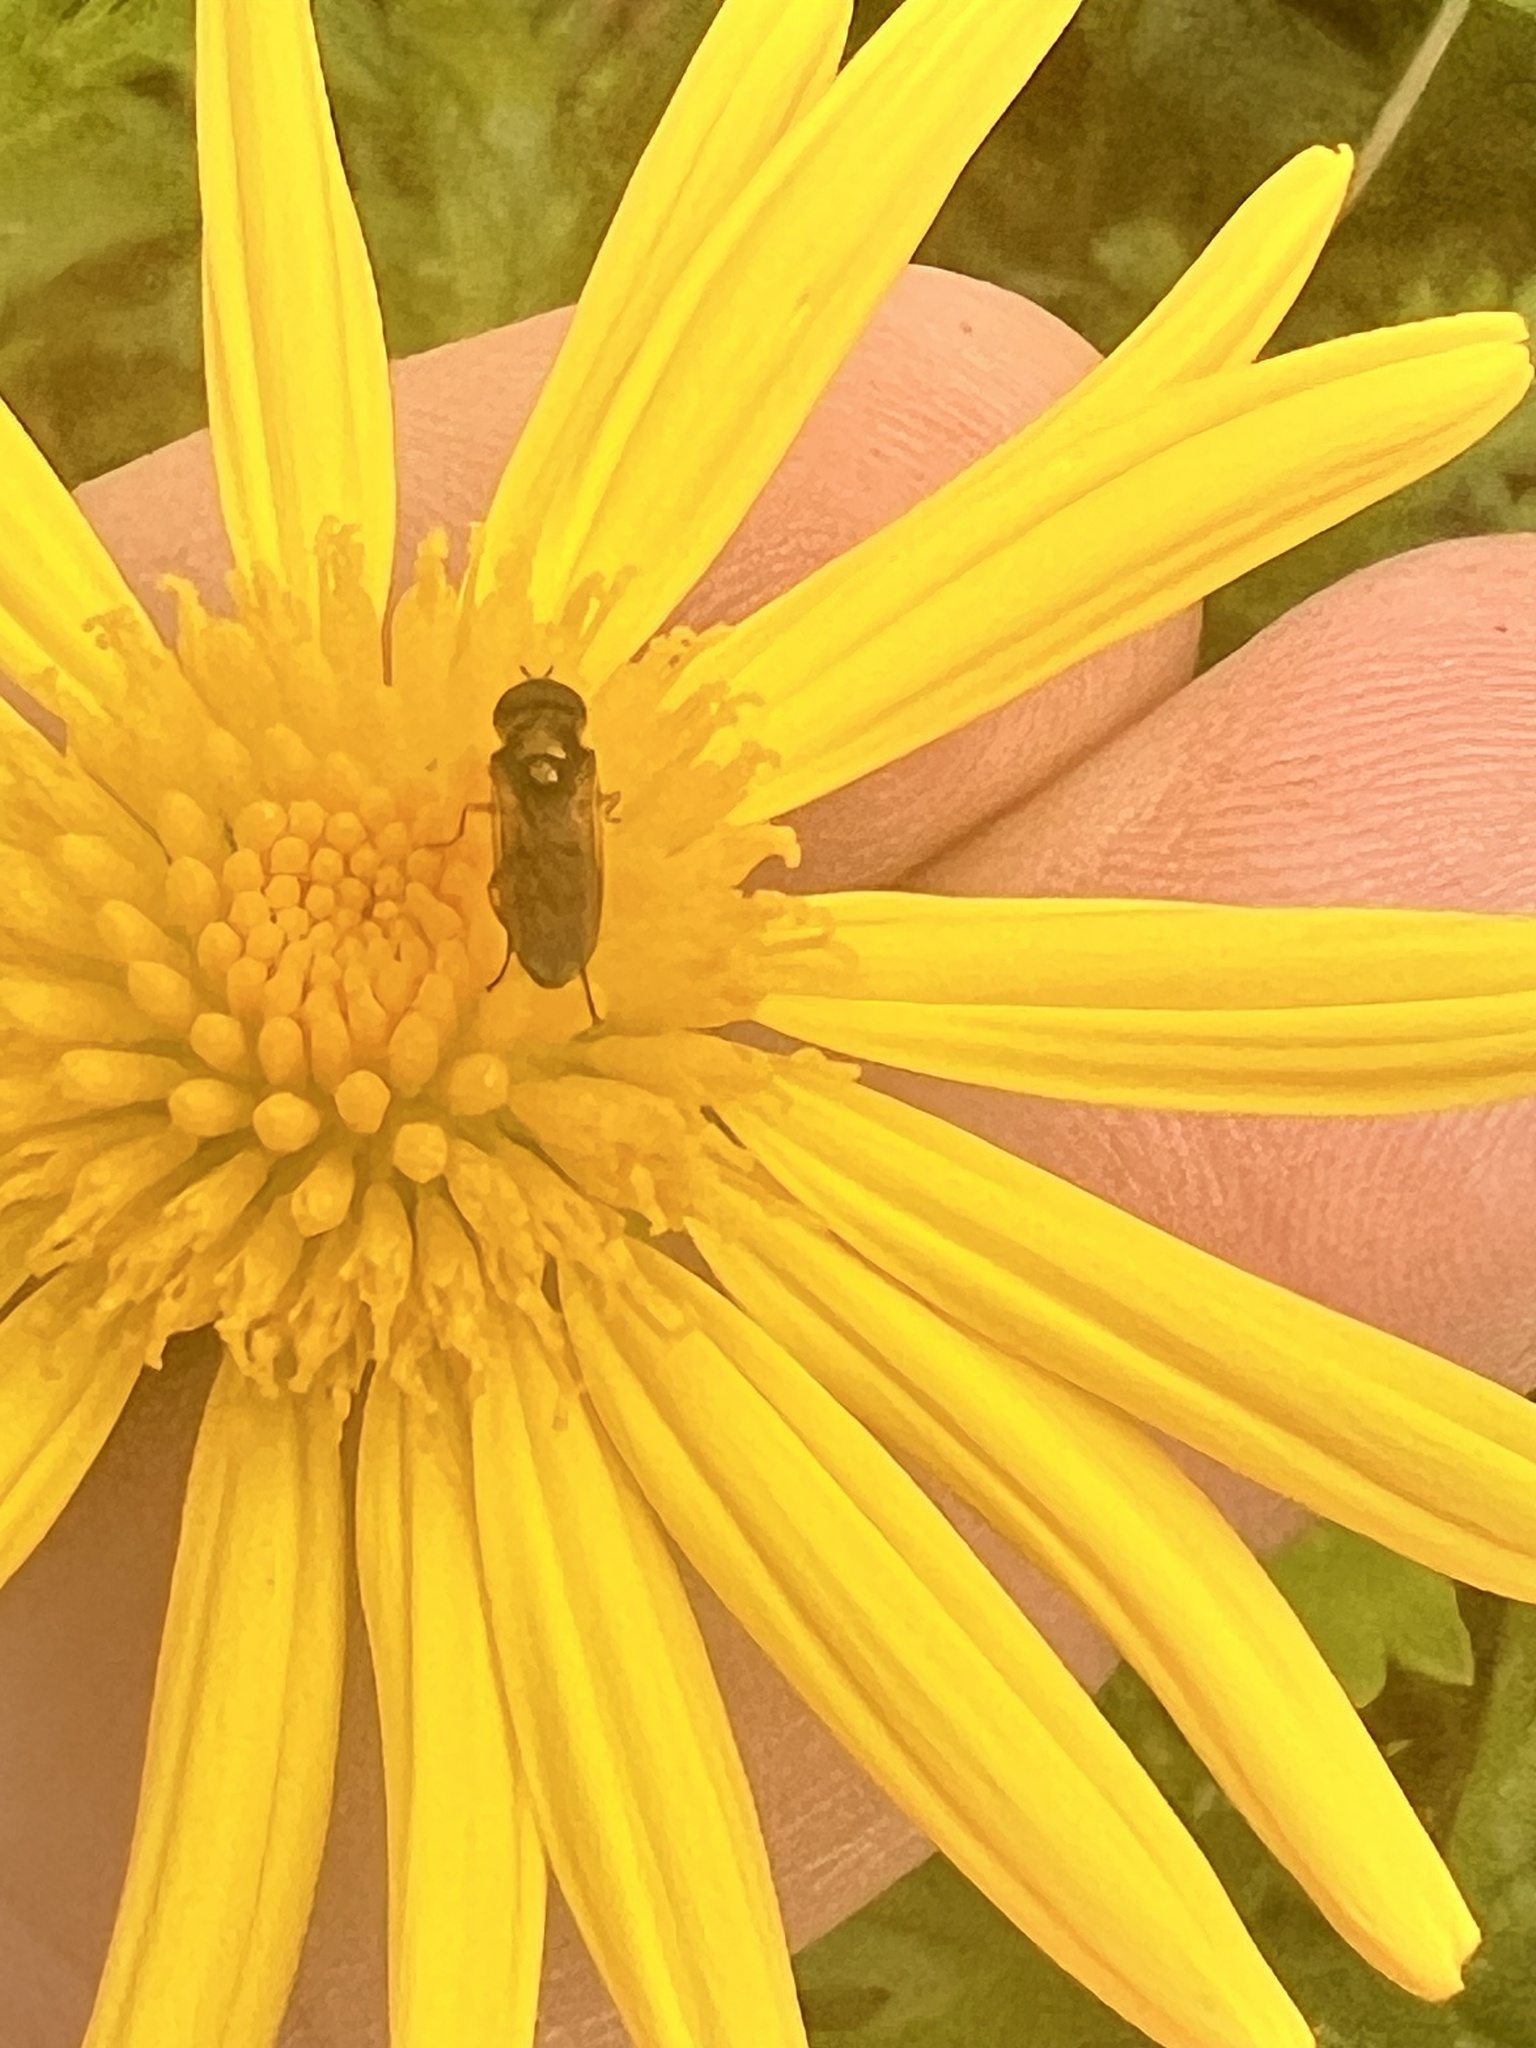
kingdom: Animalia
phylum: Arthropoda
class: Insecta
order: Diptera
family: Syrphidae
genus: Melanostoma
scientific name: Melanostoma fasciatum
